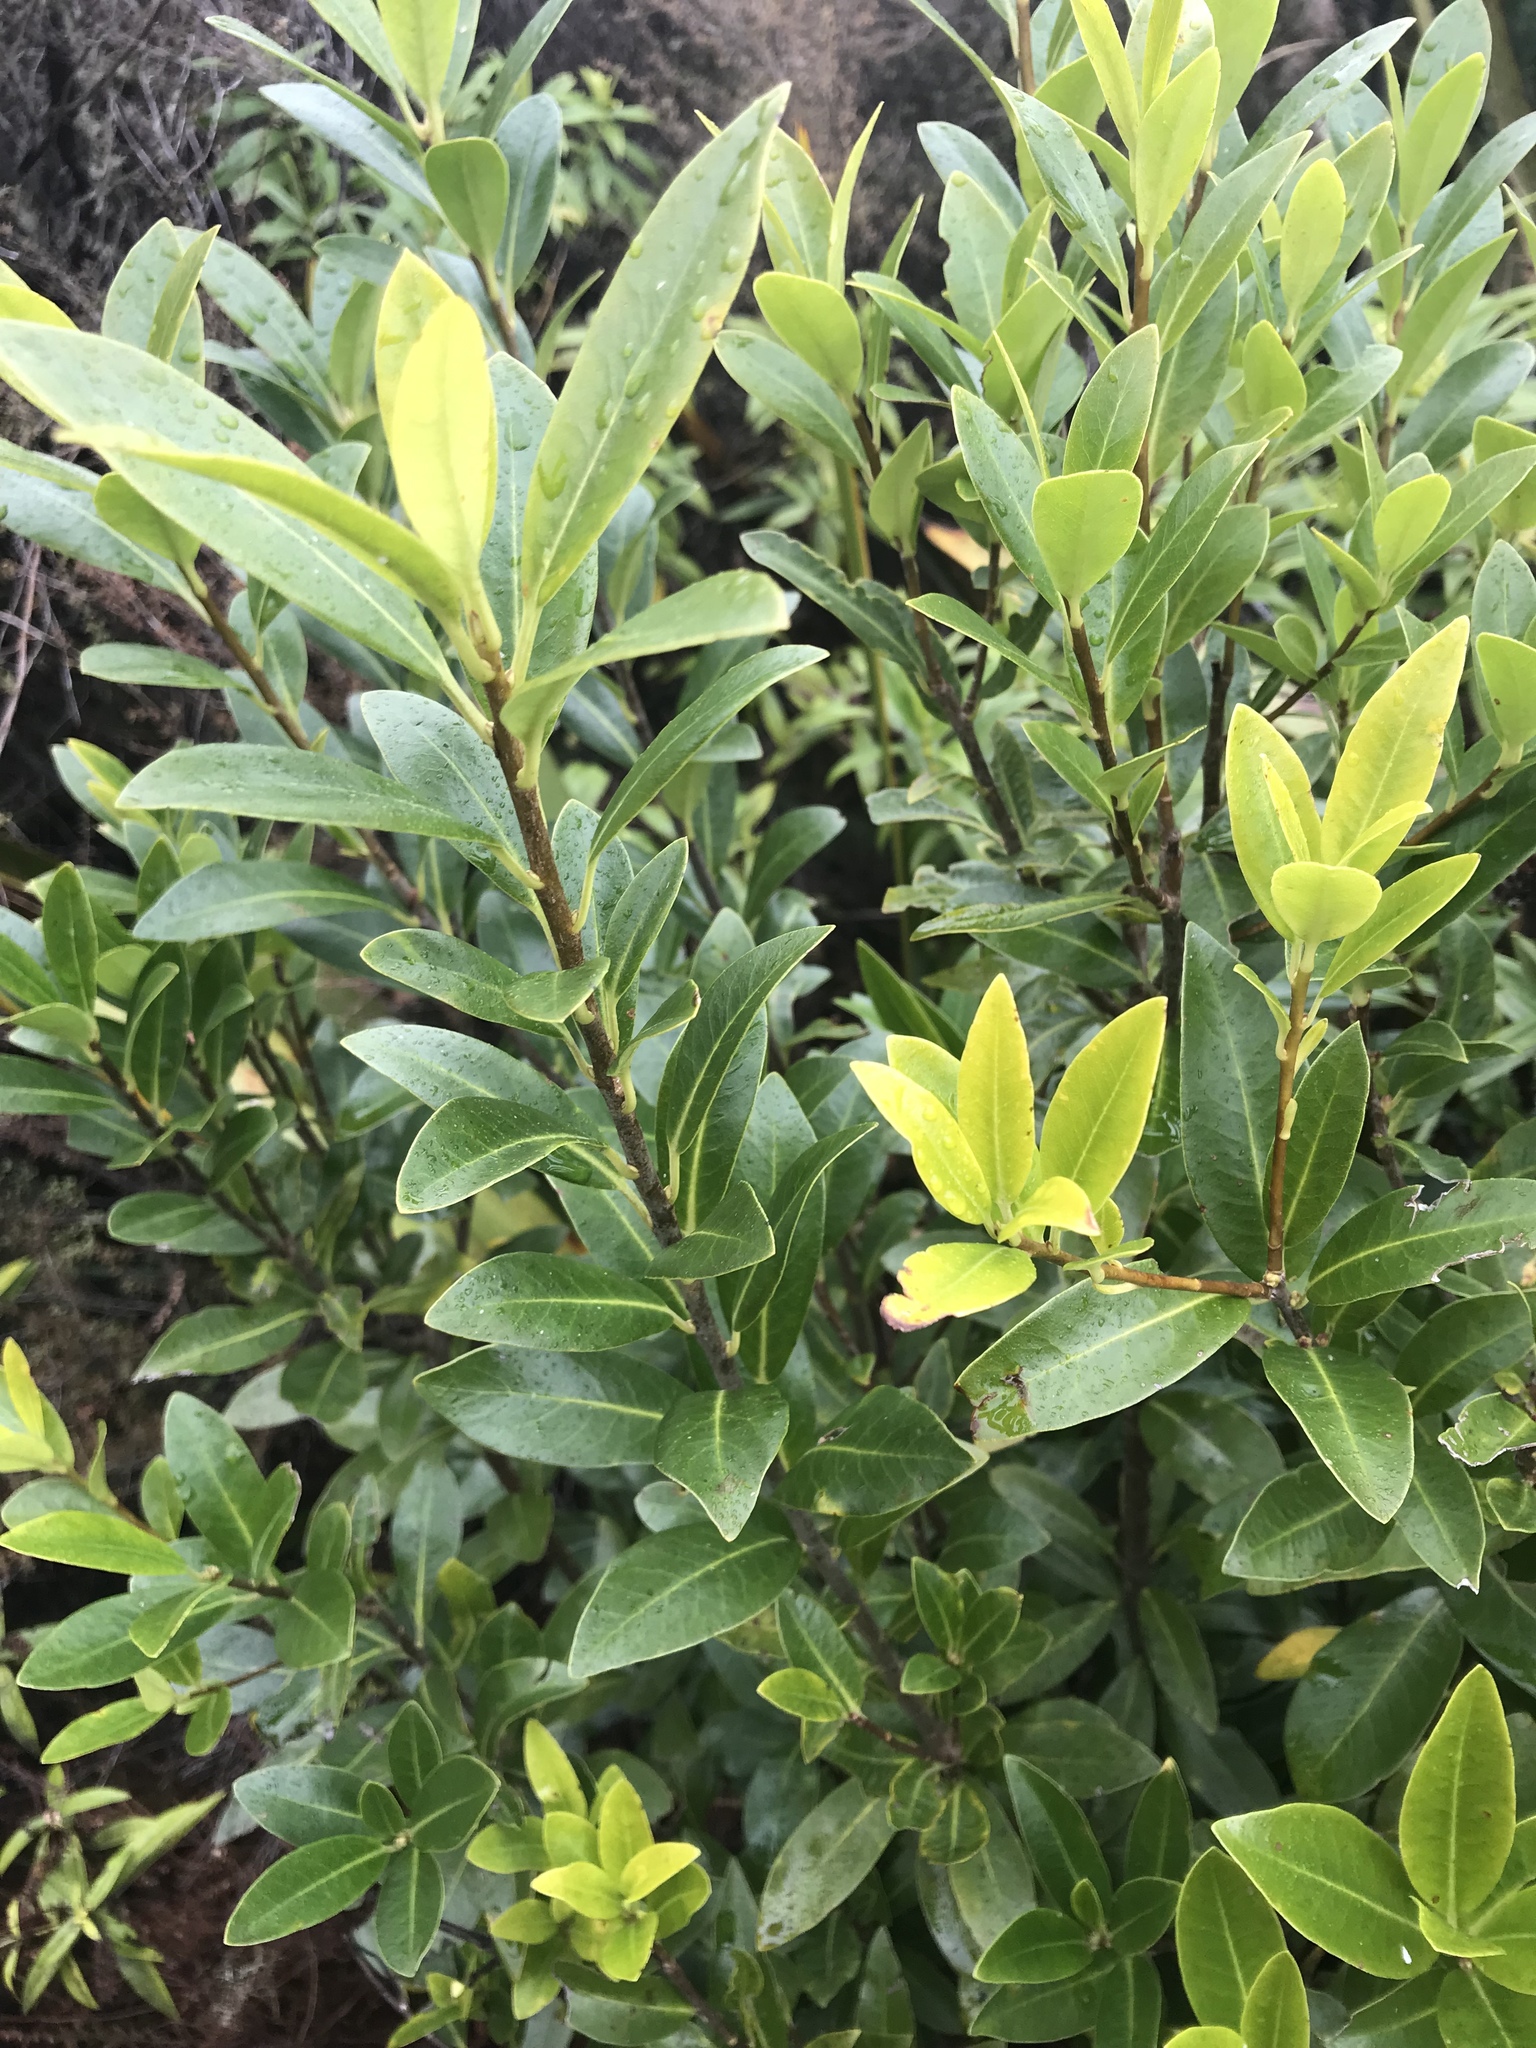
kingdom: Plantae
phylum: Tracheophyta
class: Magnoliopsida
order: Apiales
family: Pittosporaceae
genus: Pittosporum
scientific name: Pittosporum colensoi
